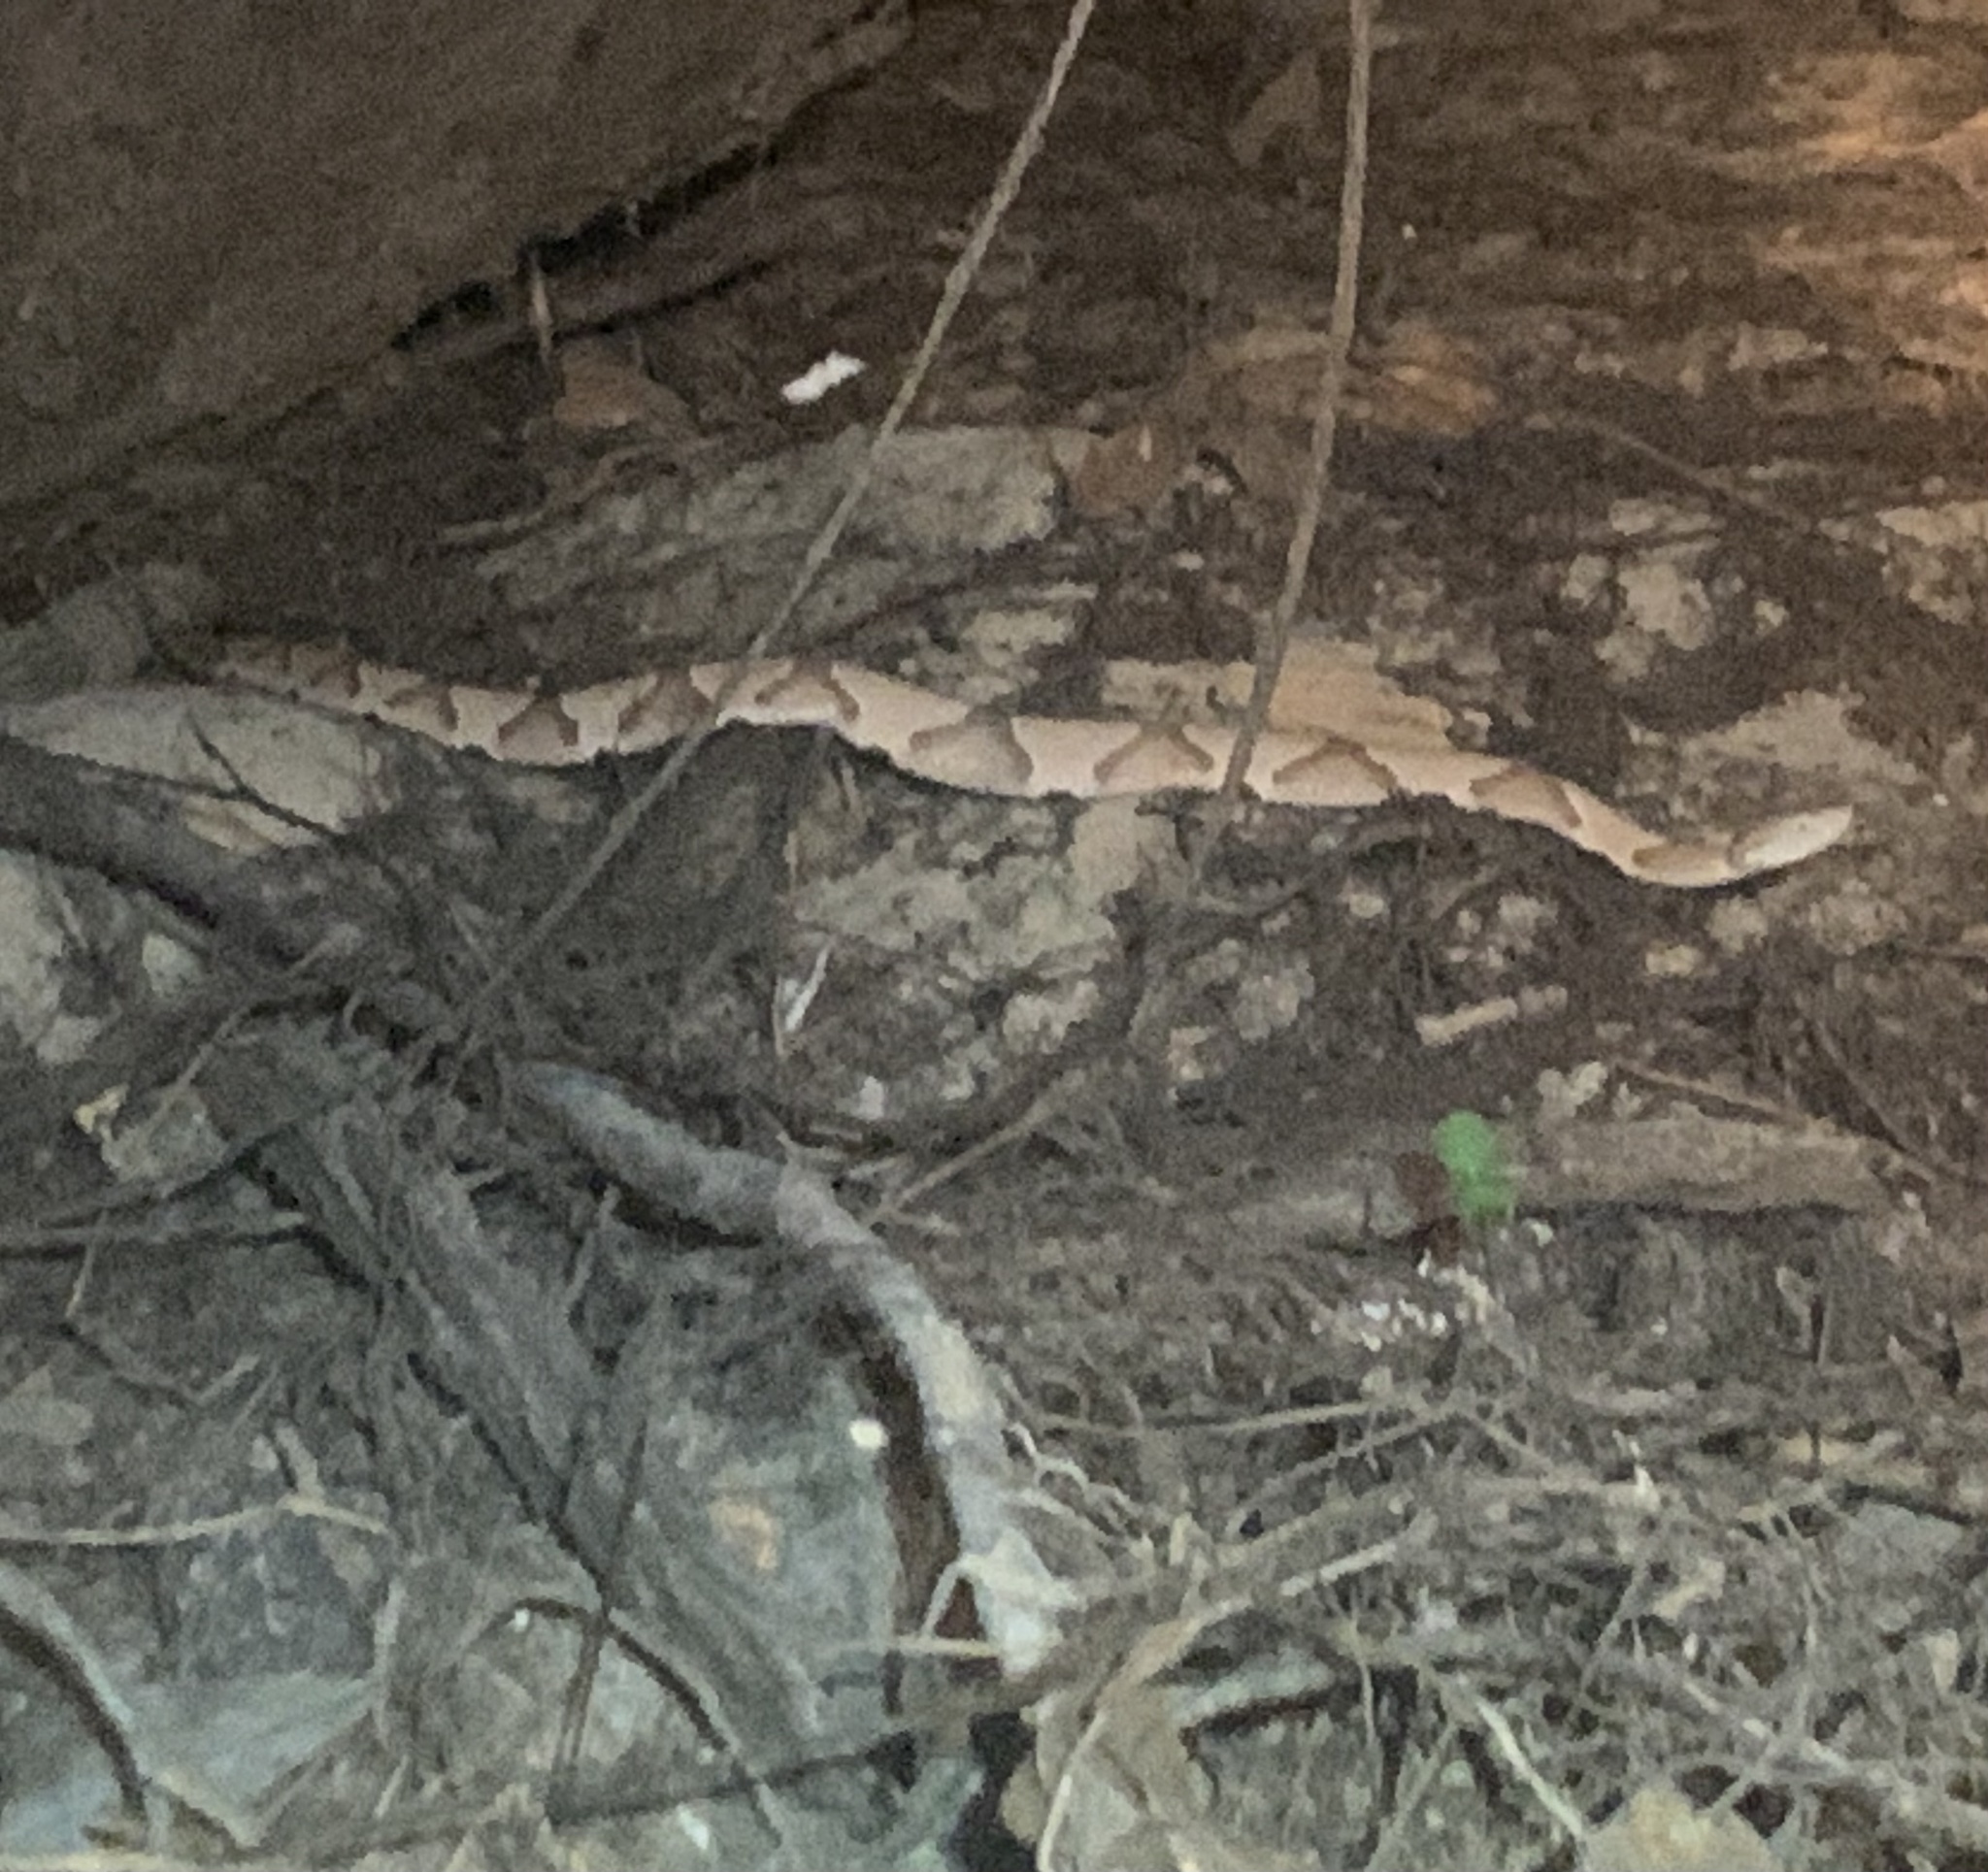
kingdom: Animalia
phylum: Chordata
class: Squamata
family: Viperidae
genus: Agkistrodon
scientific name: Agkistrodon contortrix
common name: Northern copperhead
